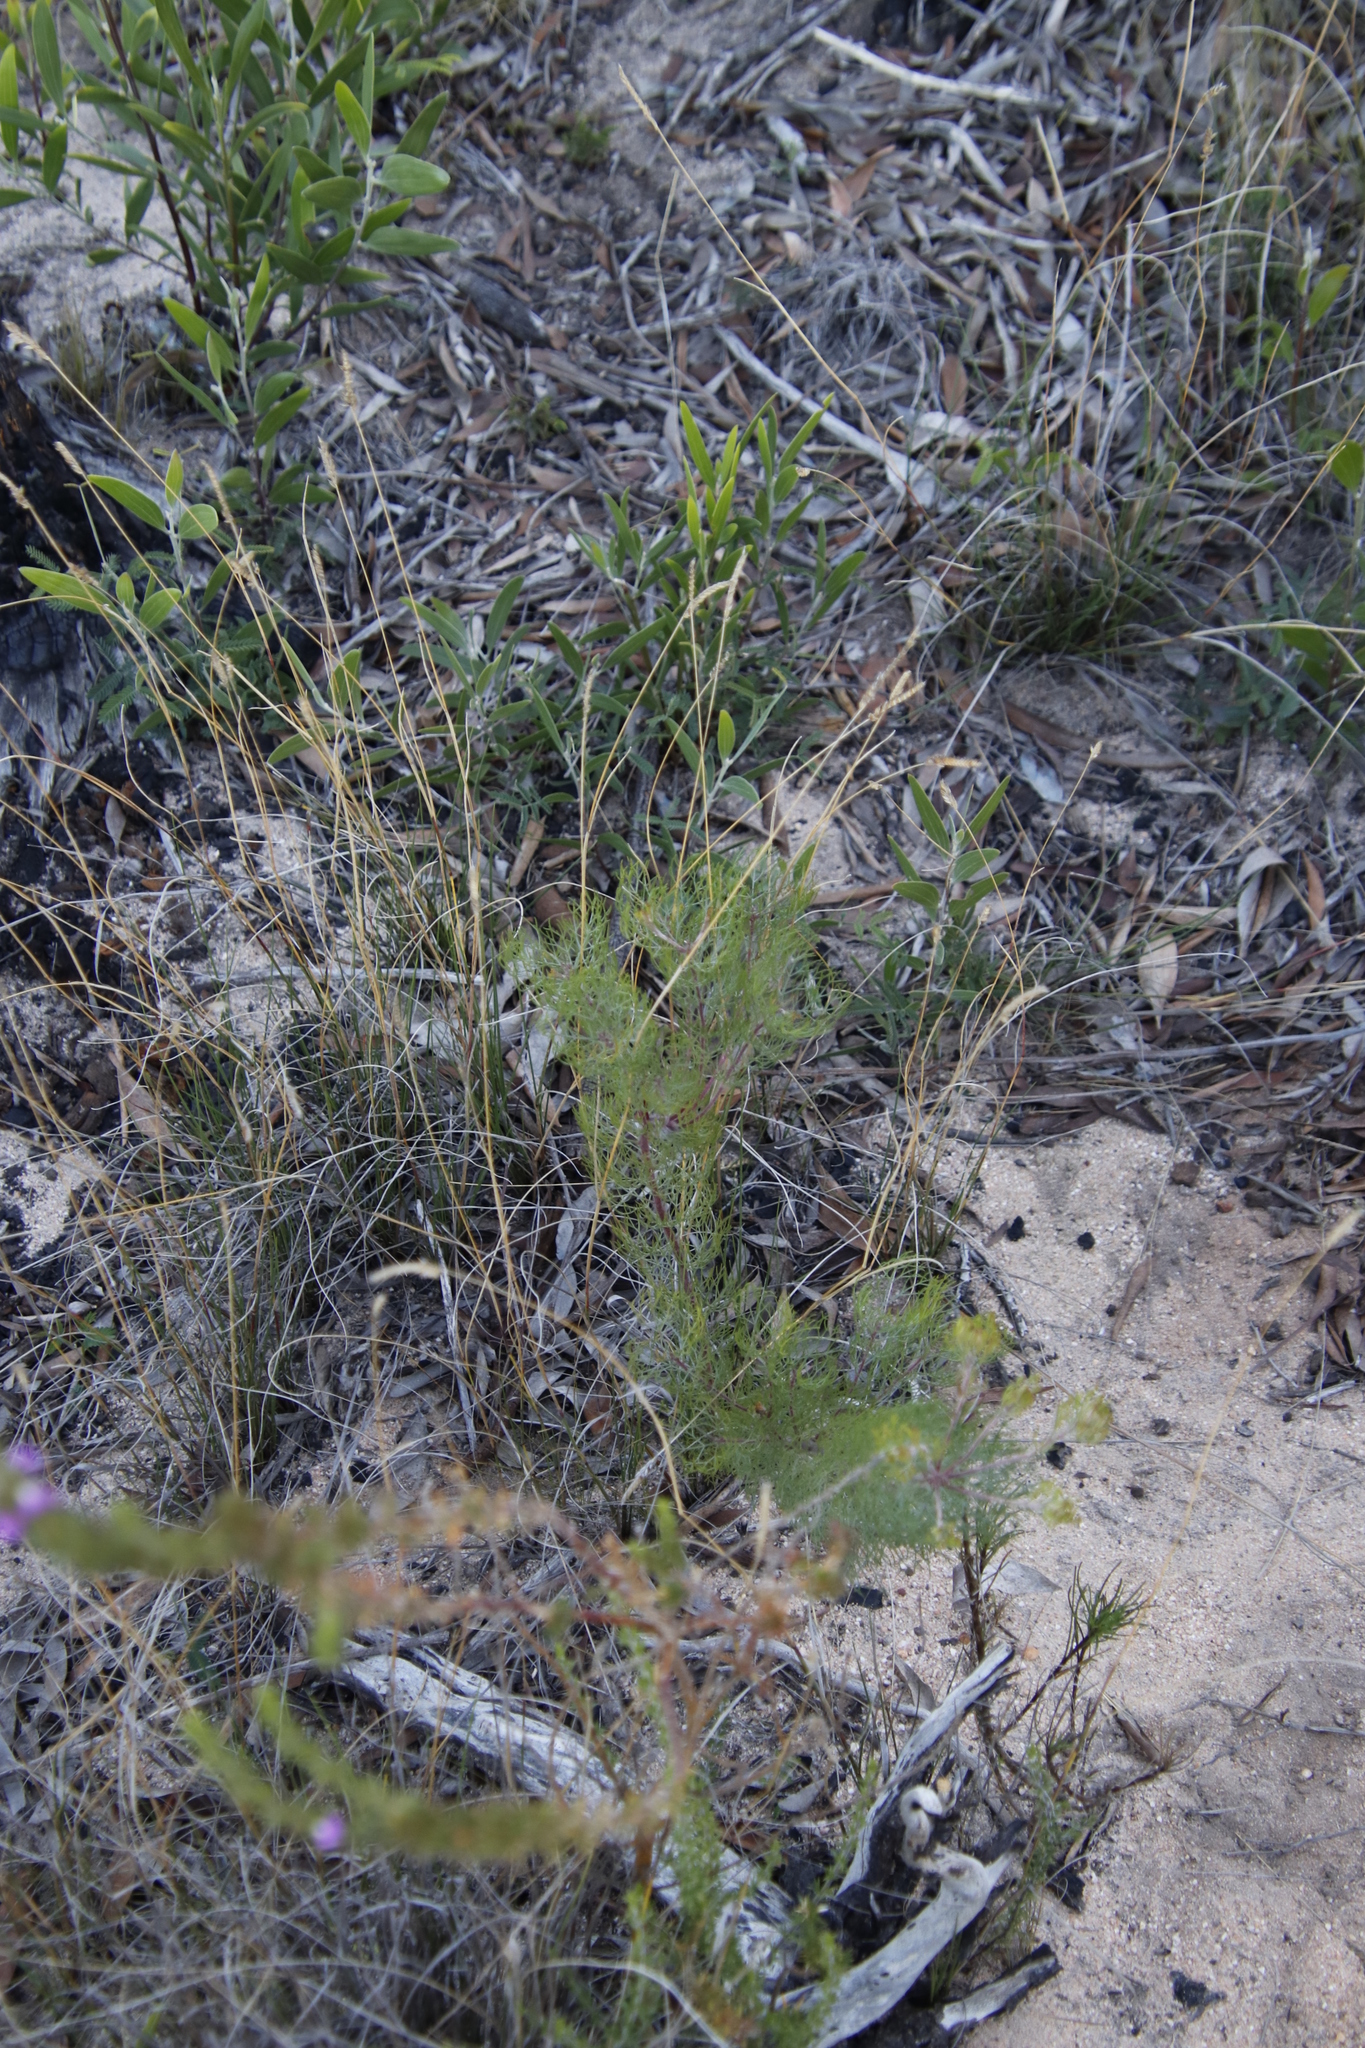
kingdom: Plantae
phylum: Tracheophyta
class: Magnoliopsida
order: Proteales
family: Proteaceae
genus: Serruria
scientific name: Serruria fasciflora
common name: Common pin spiderhead
